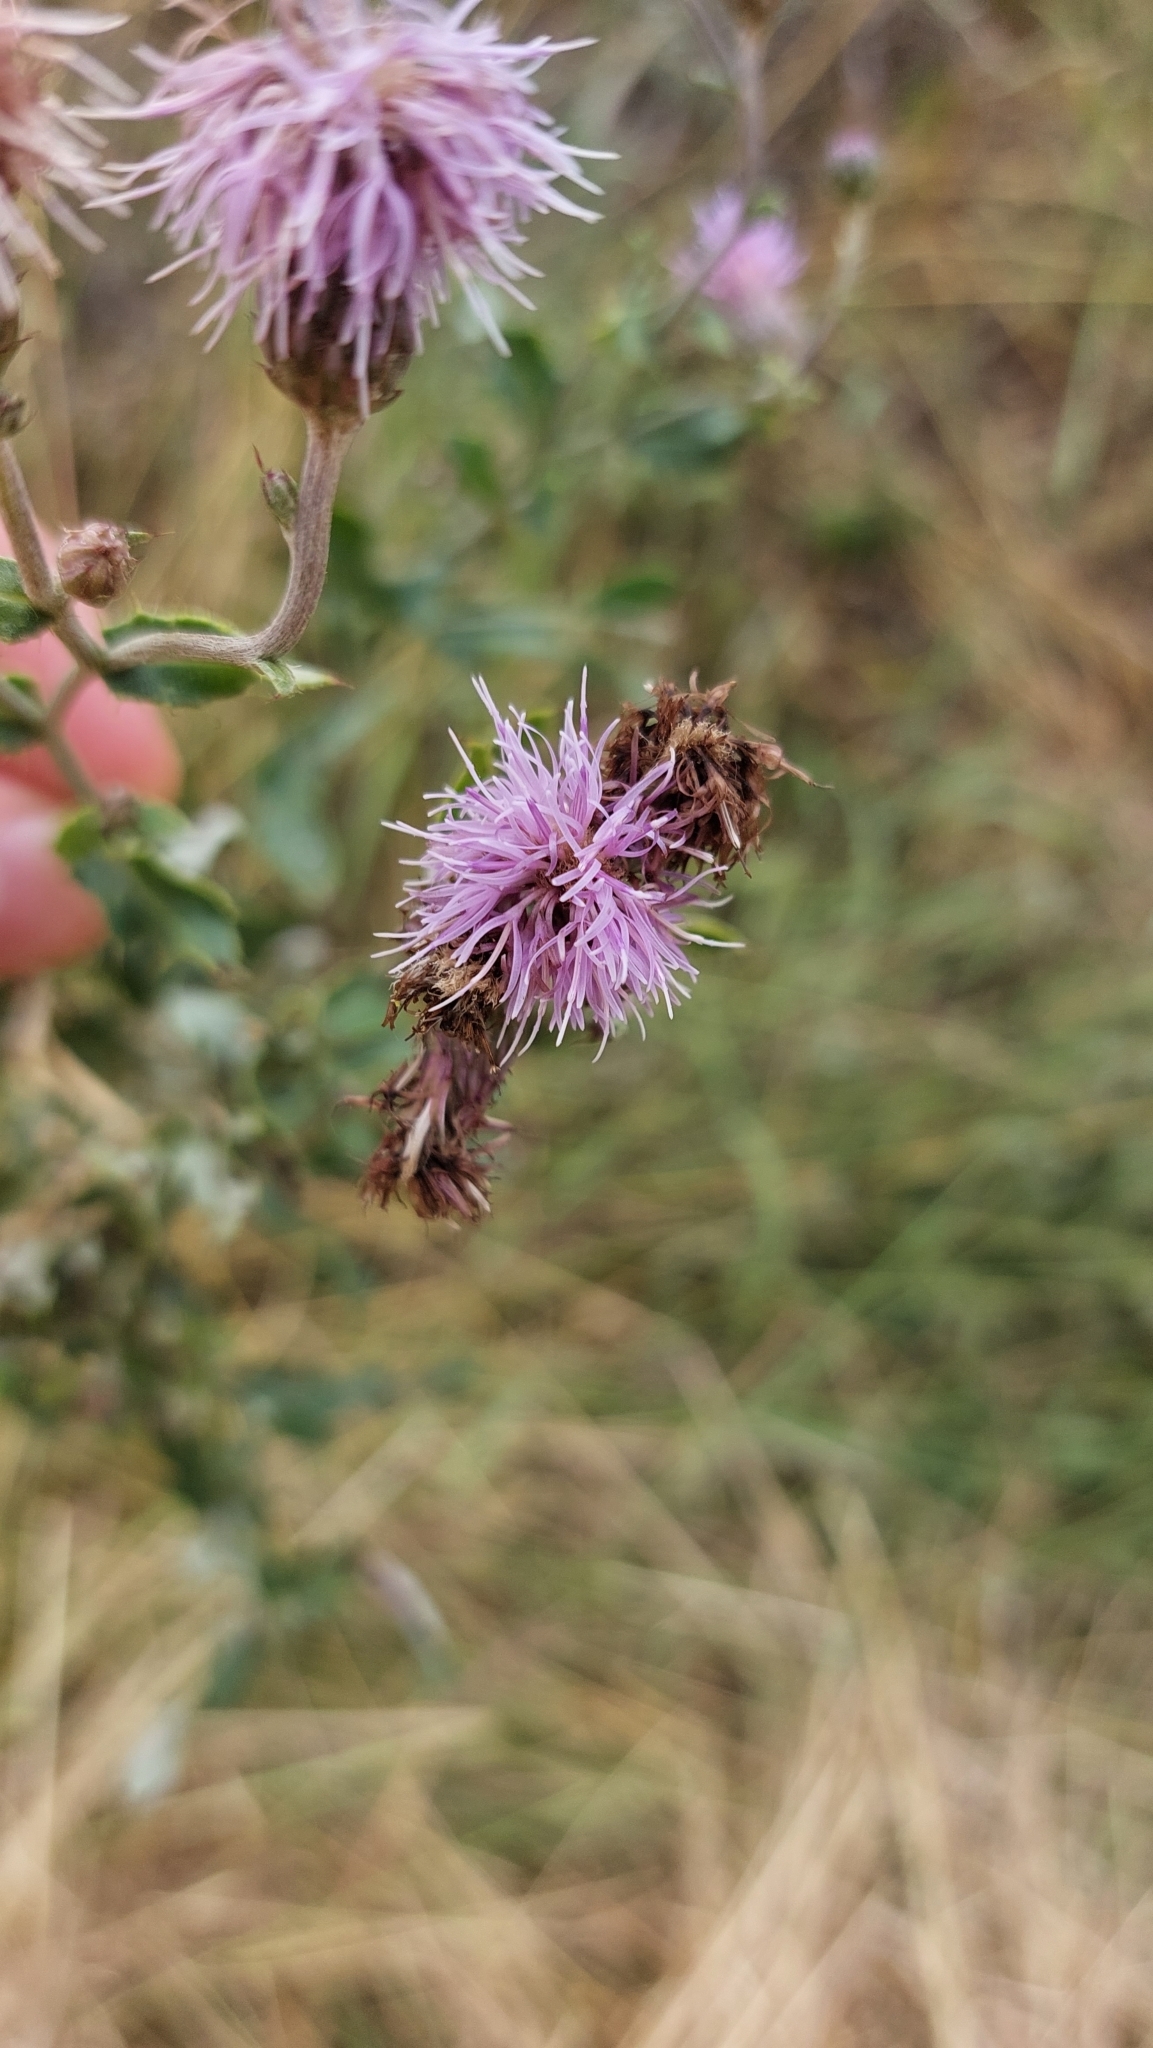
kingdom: Plantae
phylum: Tracheophyta
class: Magnoliopsida
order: Asterales
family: Asteraceae
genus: Cirsium
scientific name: Cirsium arvense
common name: Creeping thistle
